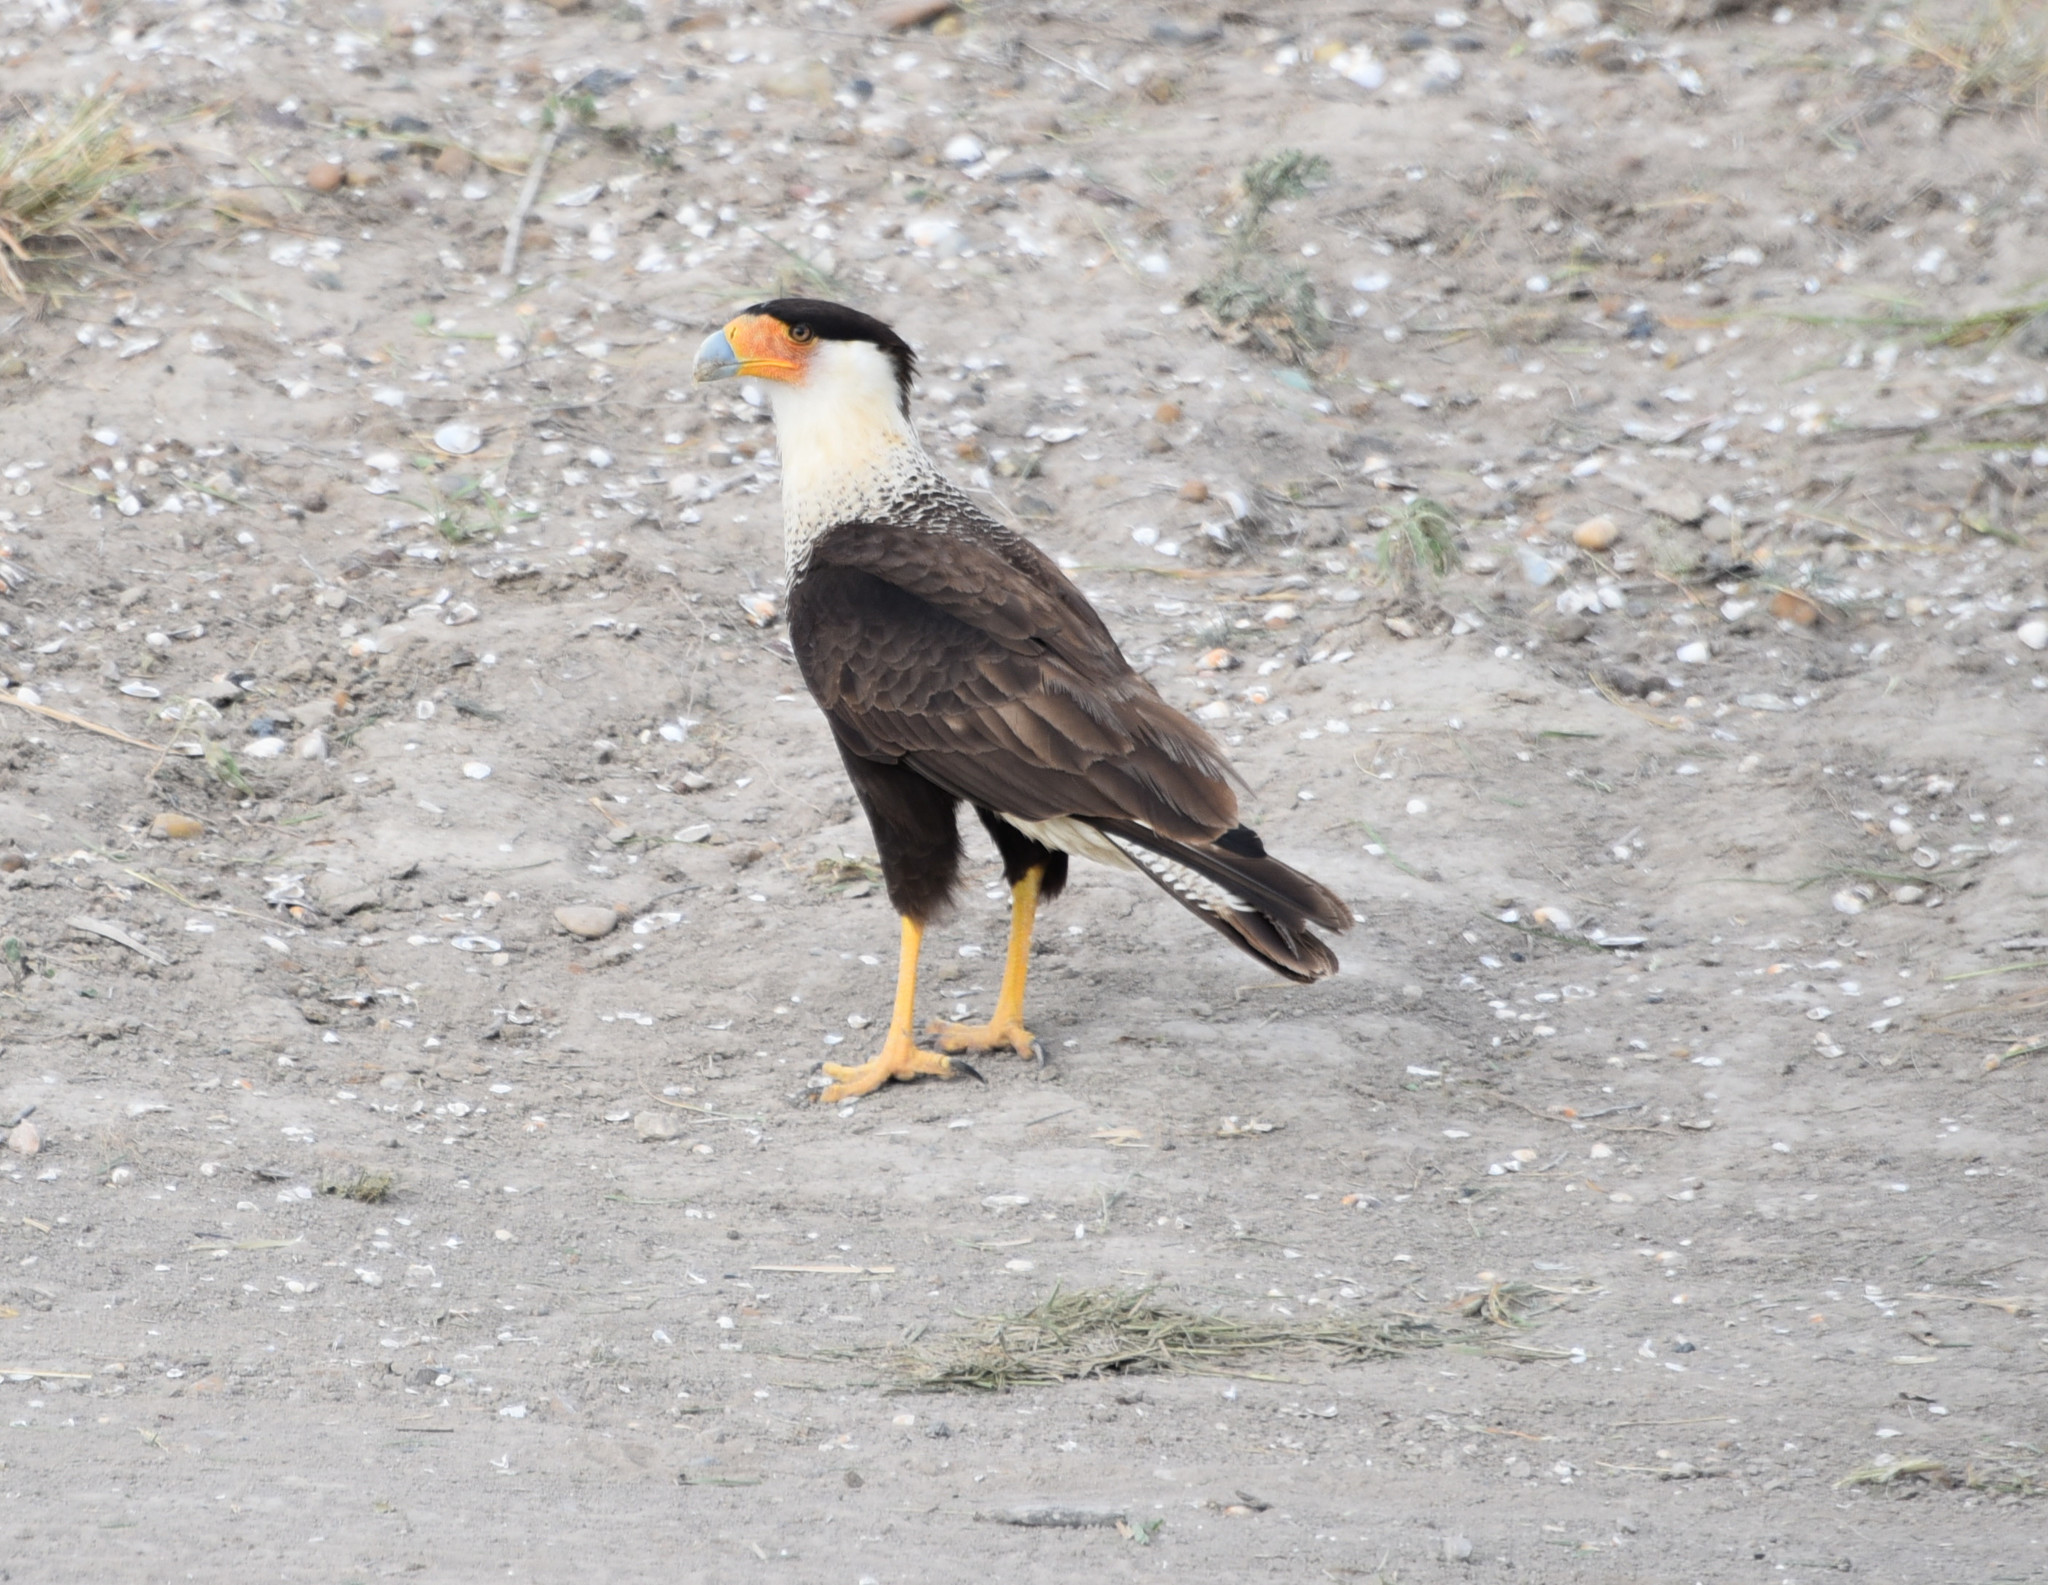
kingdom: Animalia
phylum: Chordata
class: Aves
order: Falconiformes
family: Falconidae
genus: Caracara
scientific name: Caracara plancus
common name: Southern caracara
